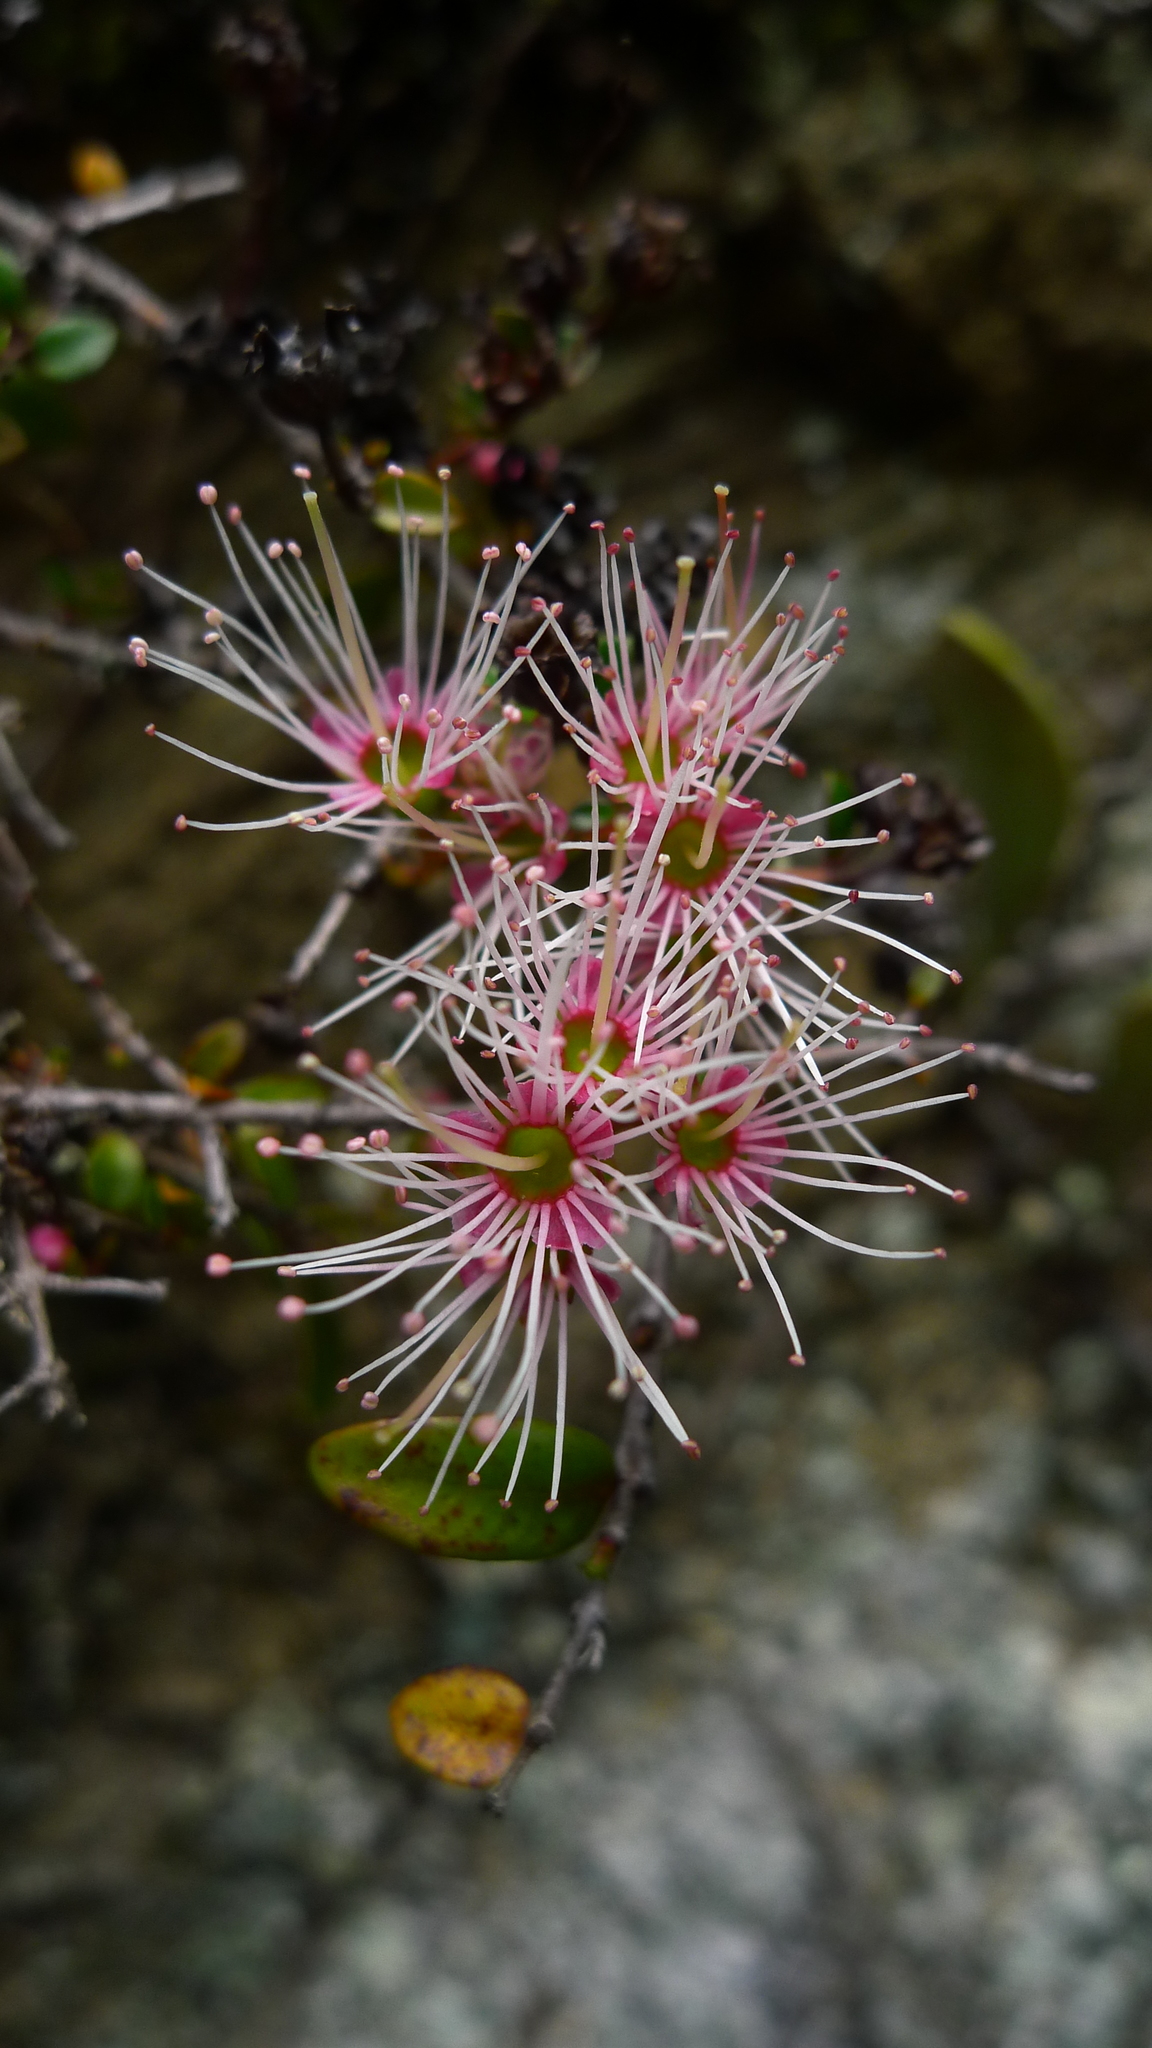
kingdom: Plantae
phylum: Tracheophyta
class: Magnoliopsida
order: Myrtales
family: Myrtaceae
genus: Metrosideros
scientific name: Metrosideros diffusa
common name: Small ratavine
